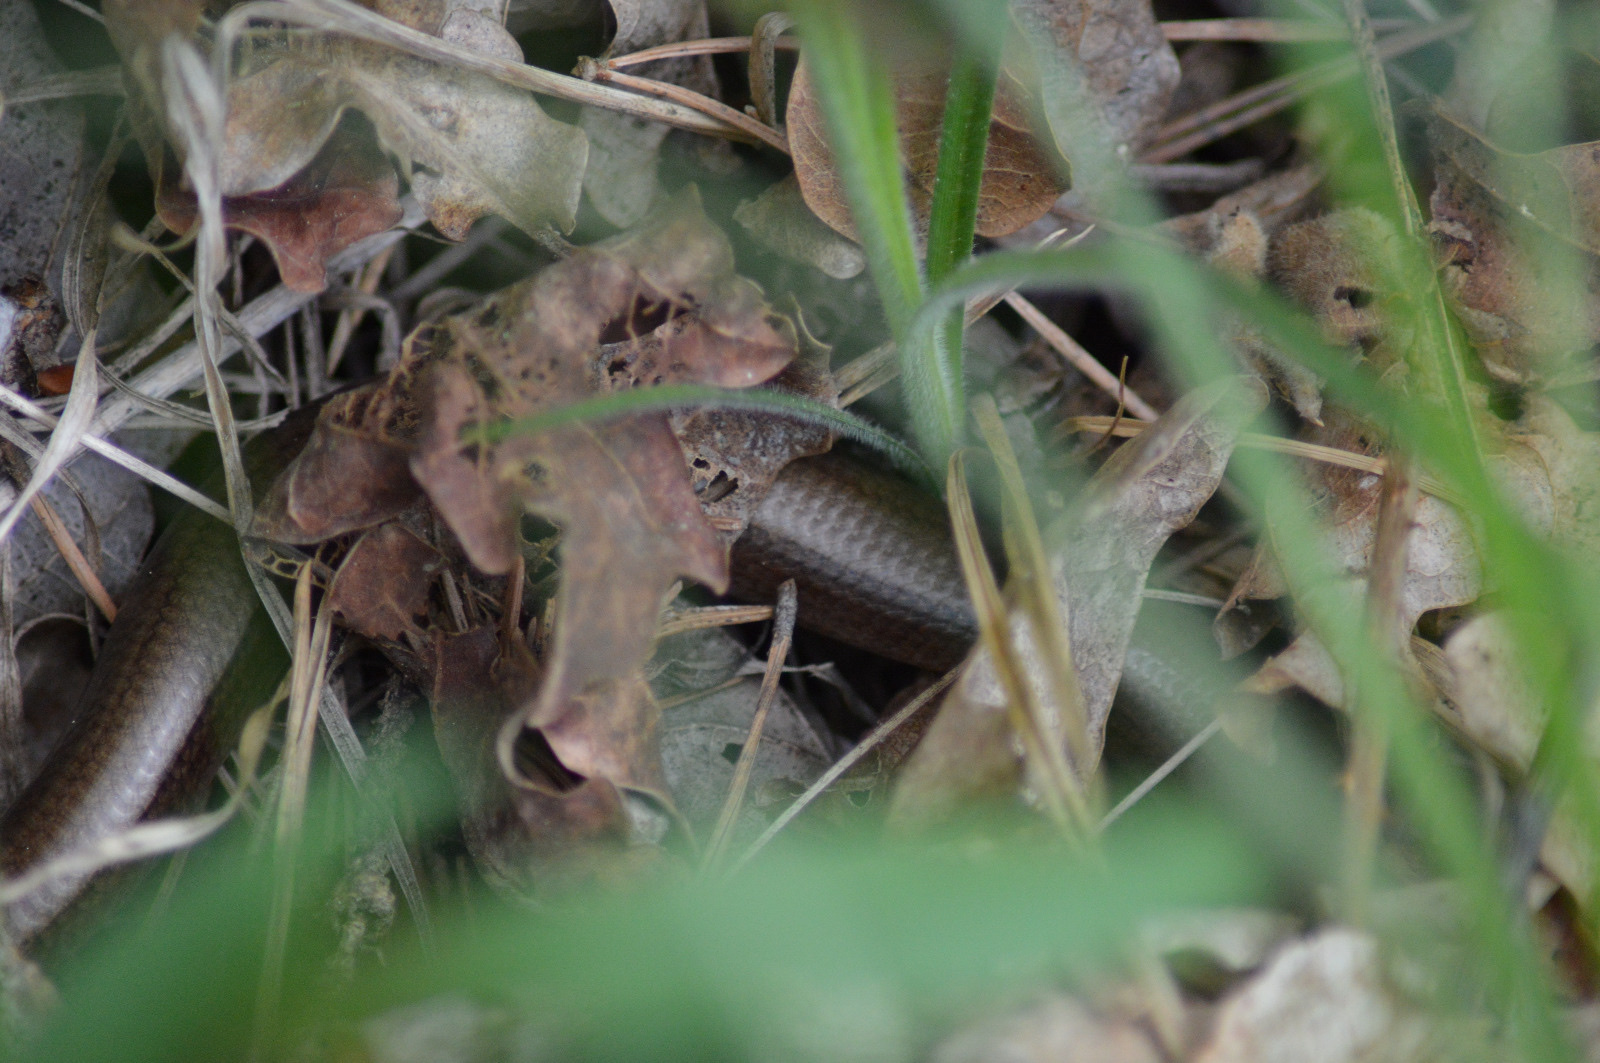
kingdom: Animalia
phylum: Chordata
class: Squamata
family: Anguidae
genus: Anguis
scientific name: Anguis fragilis
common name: Slow worm
